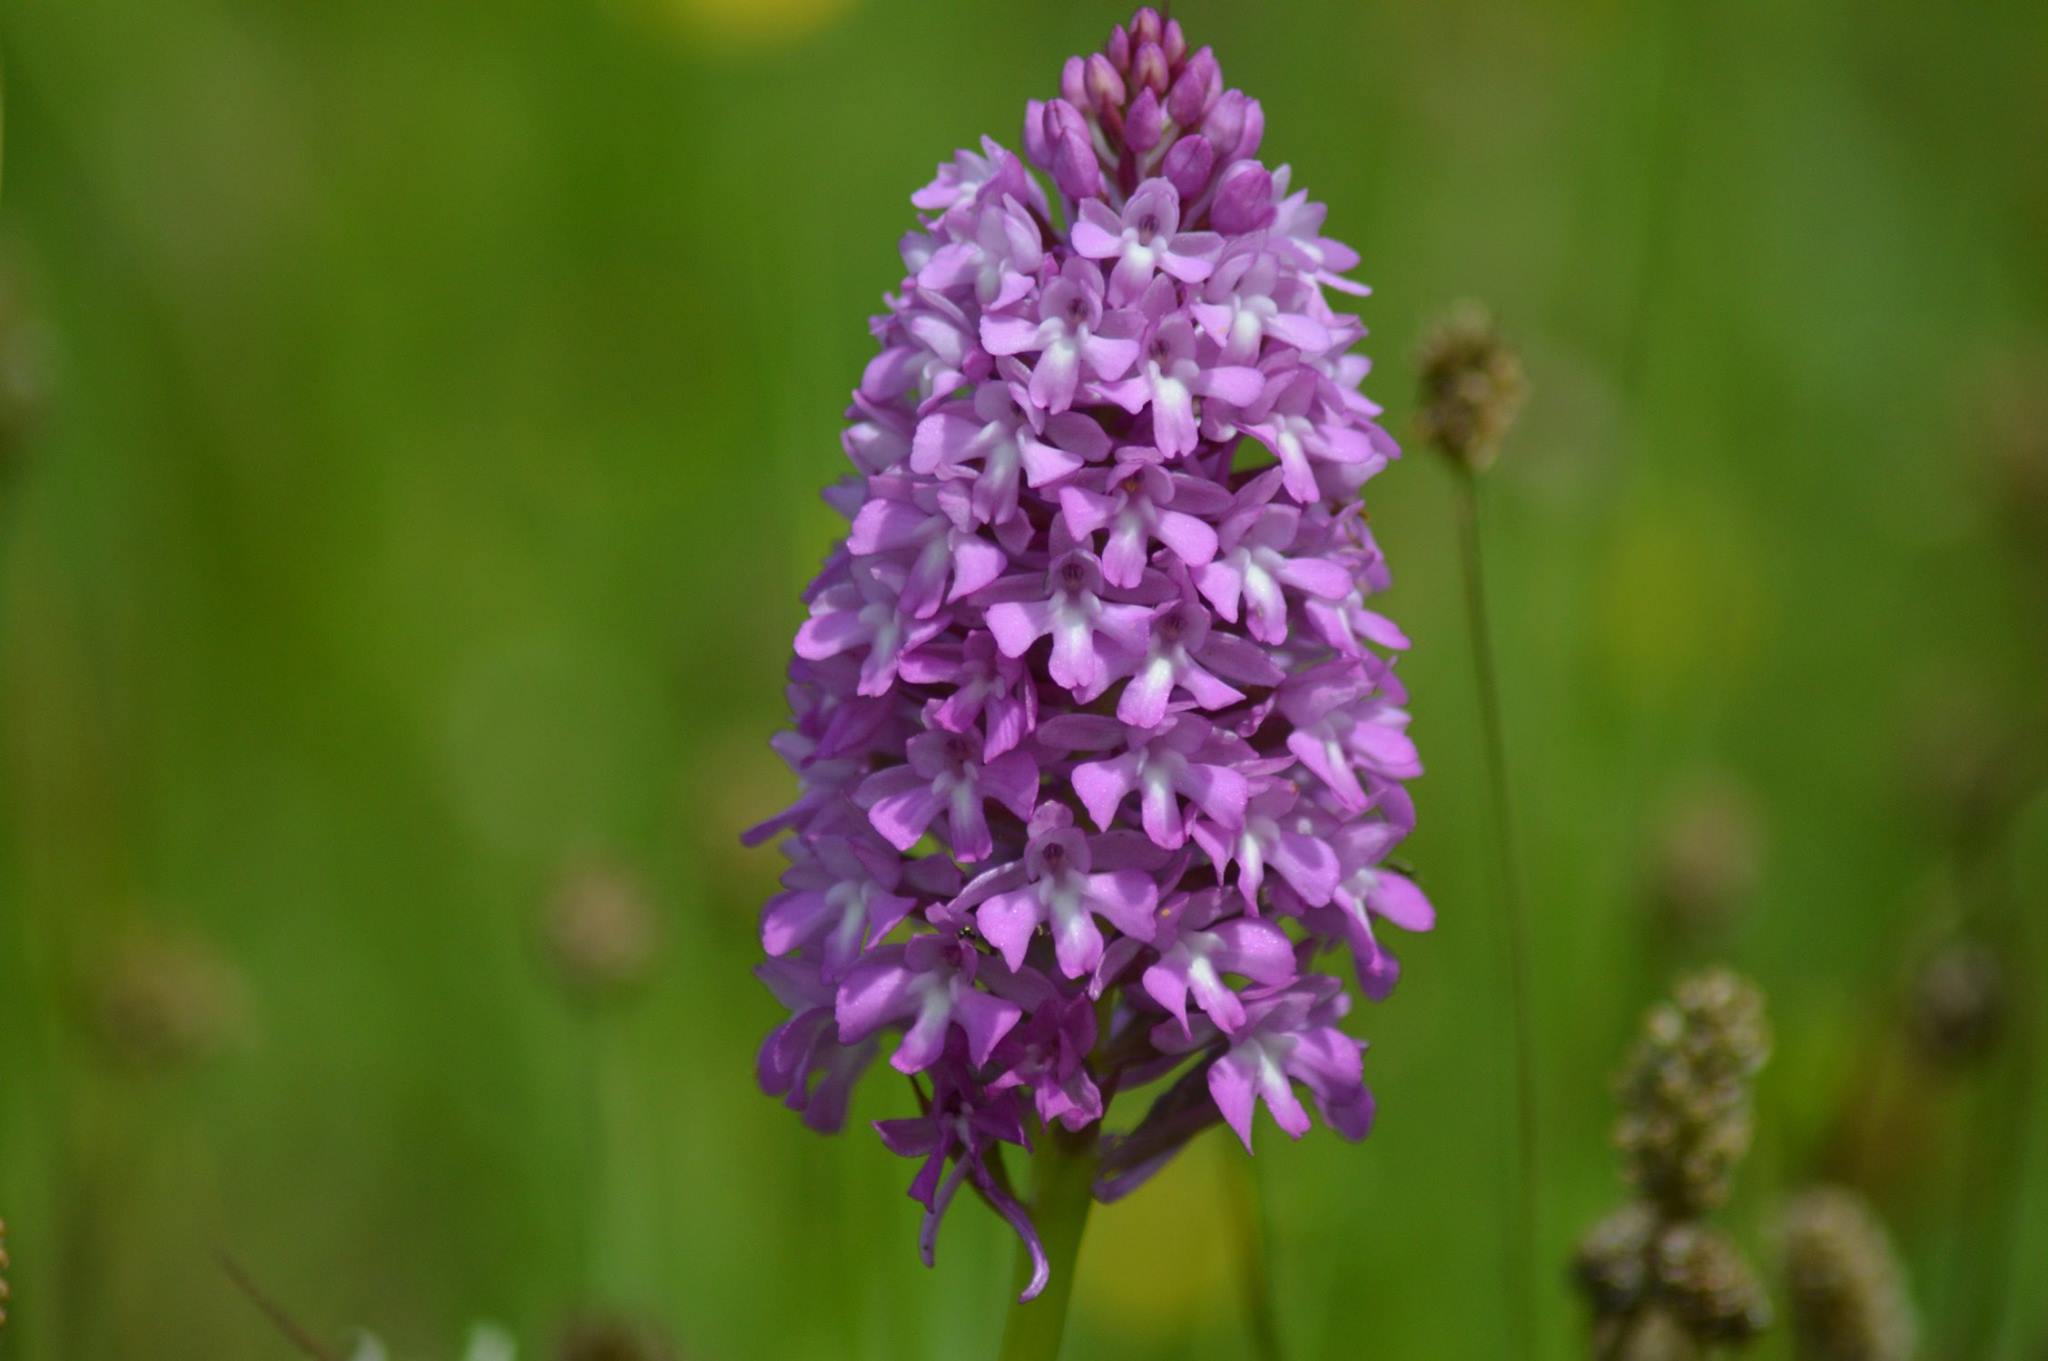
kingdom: Plantae
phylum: Tracheophyta
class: Liliopsida
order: Asparagales
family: Orchidaceae
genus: Anacamptis
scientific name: Anacamptis pyramidalis
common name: Pyramidal orchid
